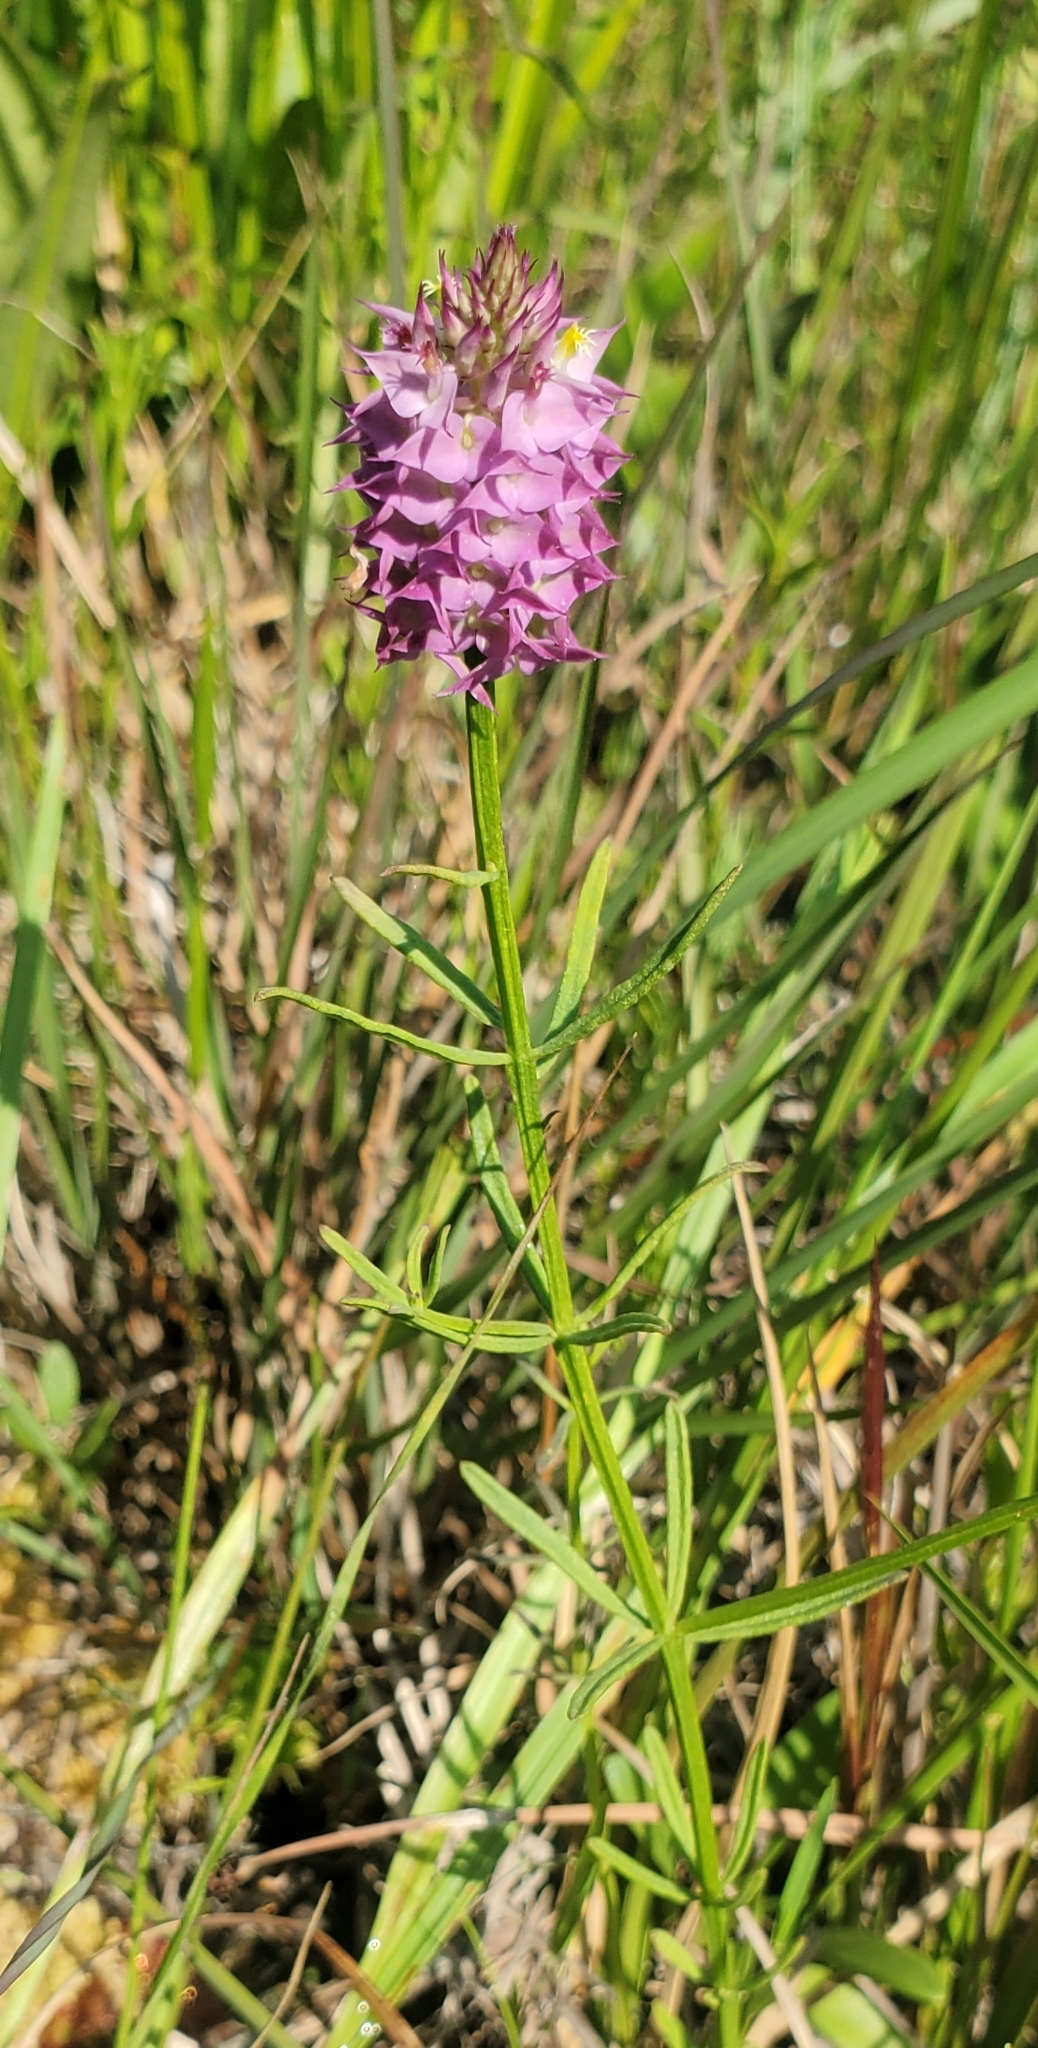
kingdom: Plantae
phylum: Tracheophyta
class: Magnoliopsida
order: Fabales
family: Polygalaceae
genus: Polygala
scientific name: Polygala cruciata
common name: Drumheads
